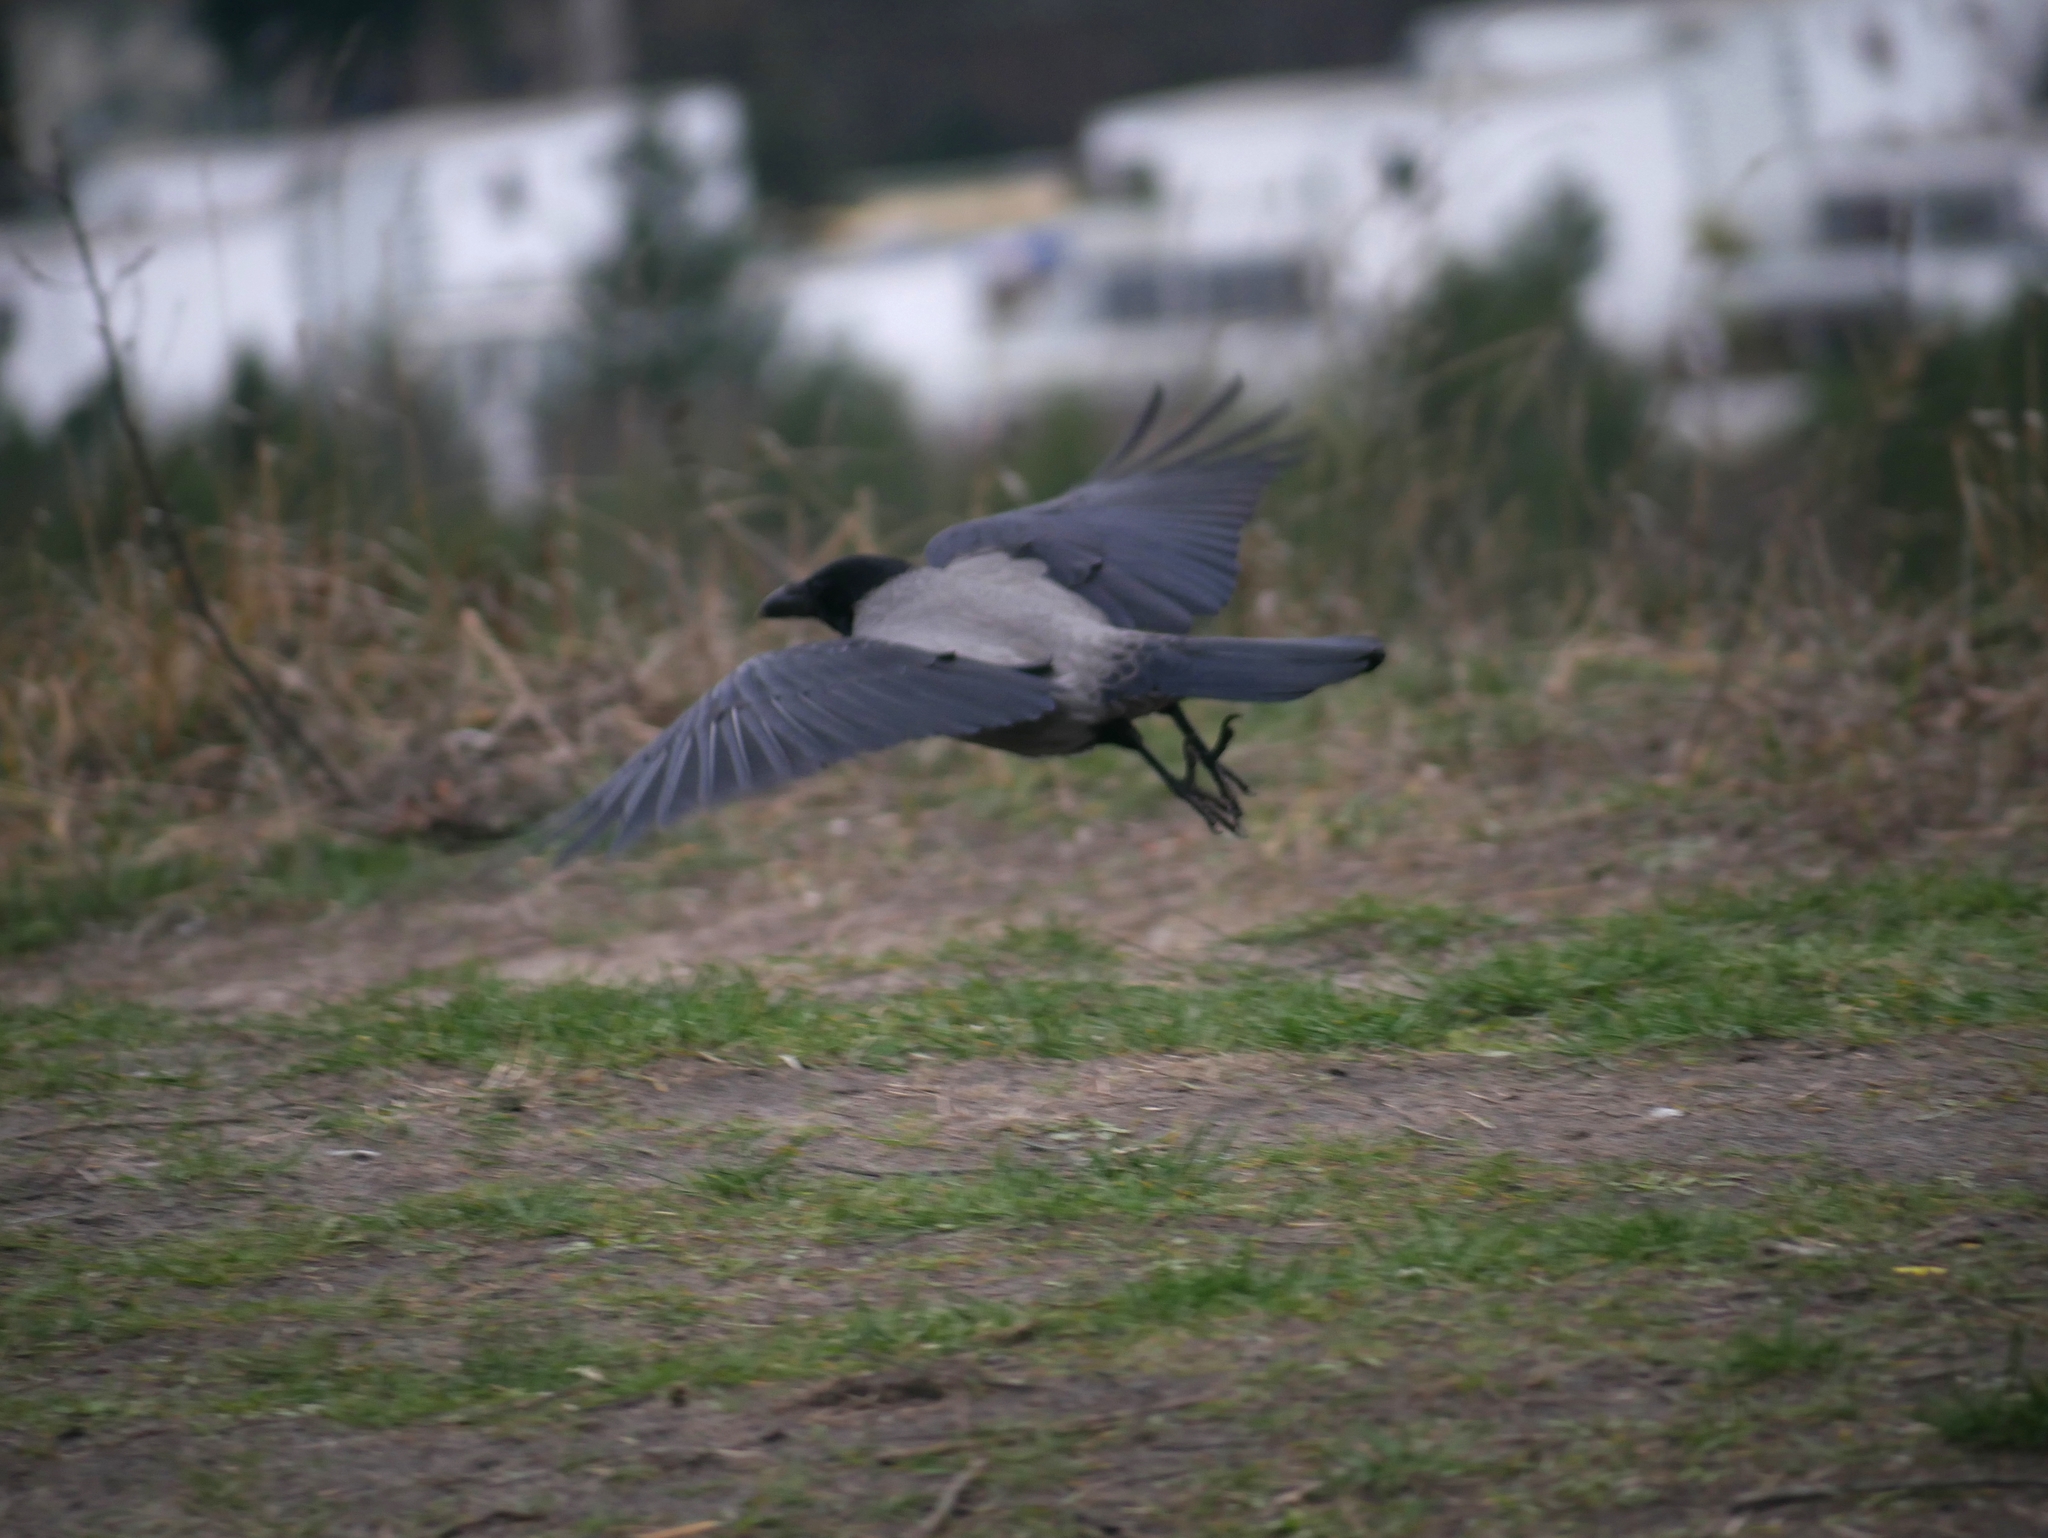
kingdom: Animalia
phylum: Chordata
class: Aves
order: Passeriformes
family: Corvidae
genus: Corvus
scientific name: Corvus cornix
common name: Hooded crow
